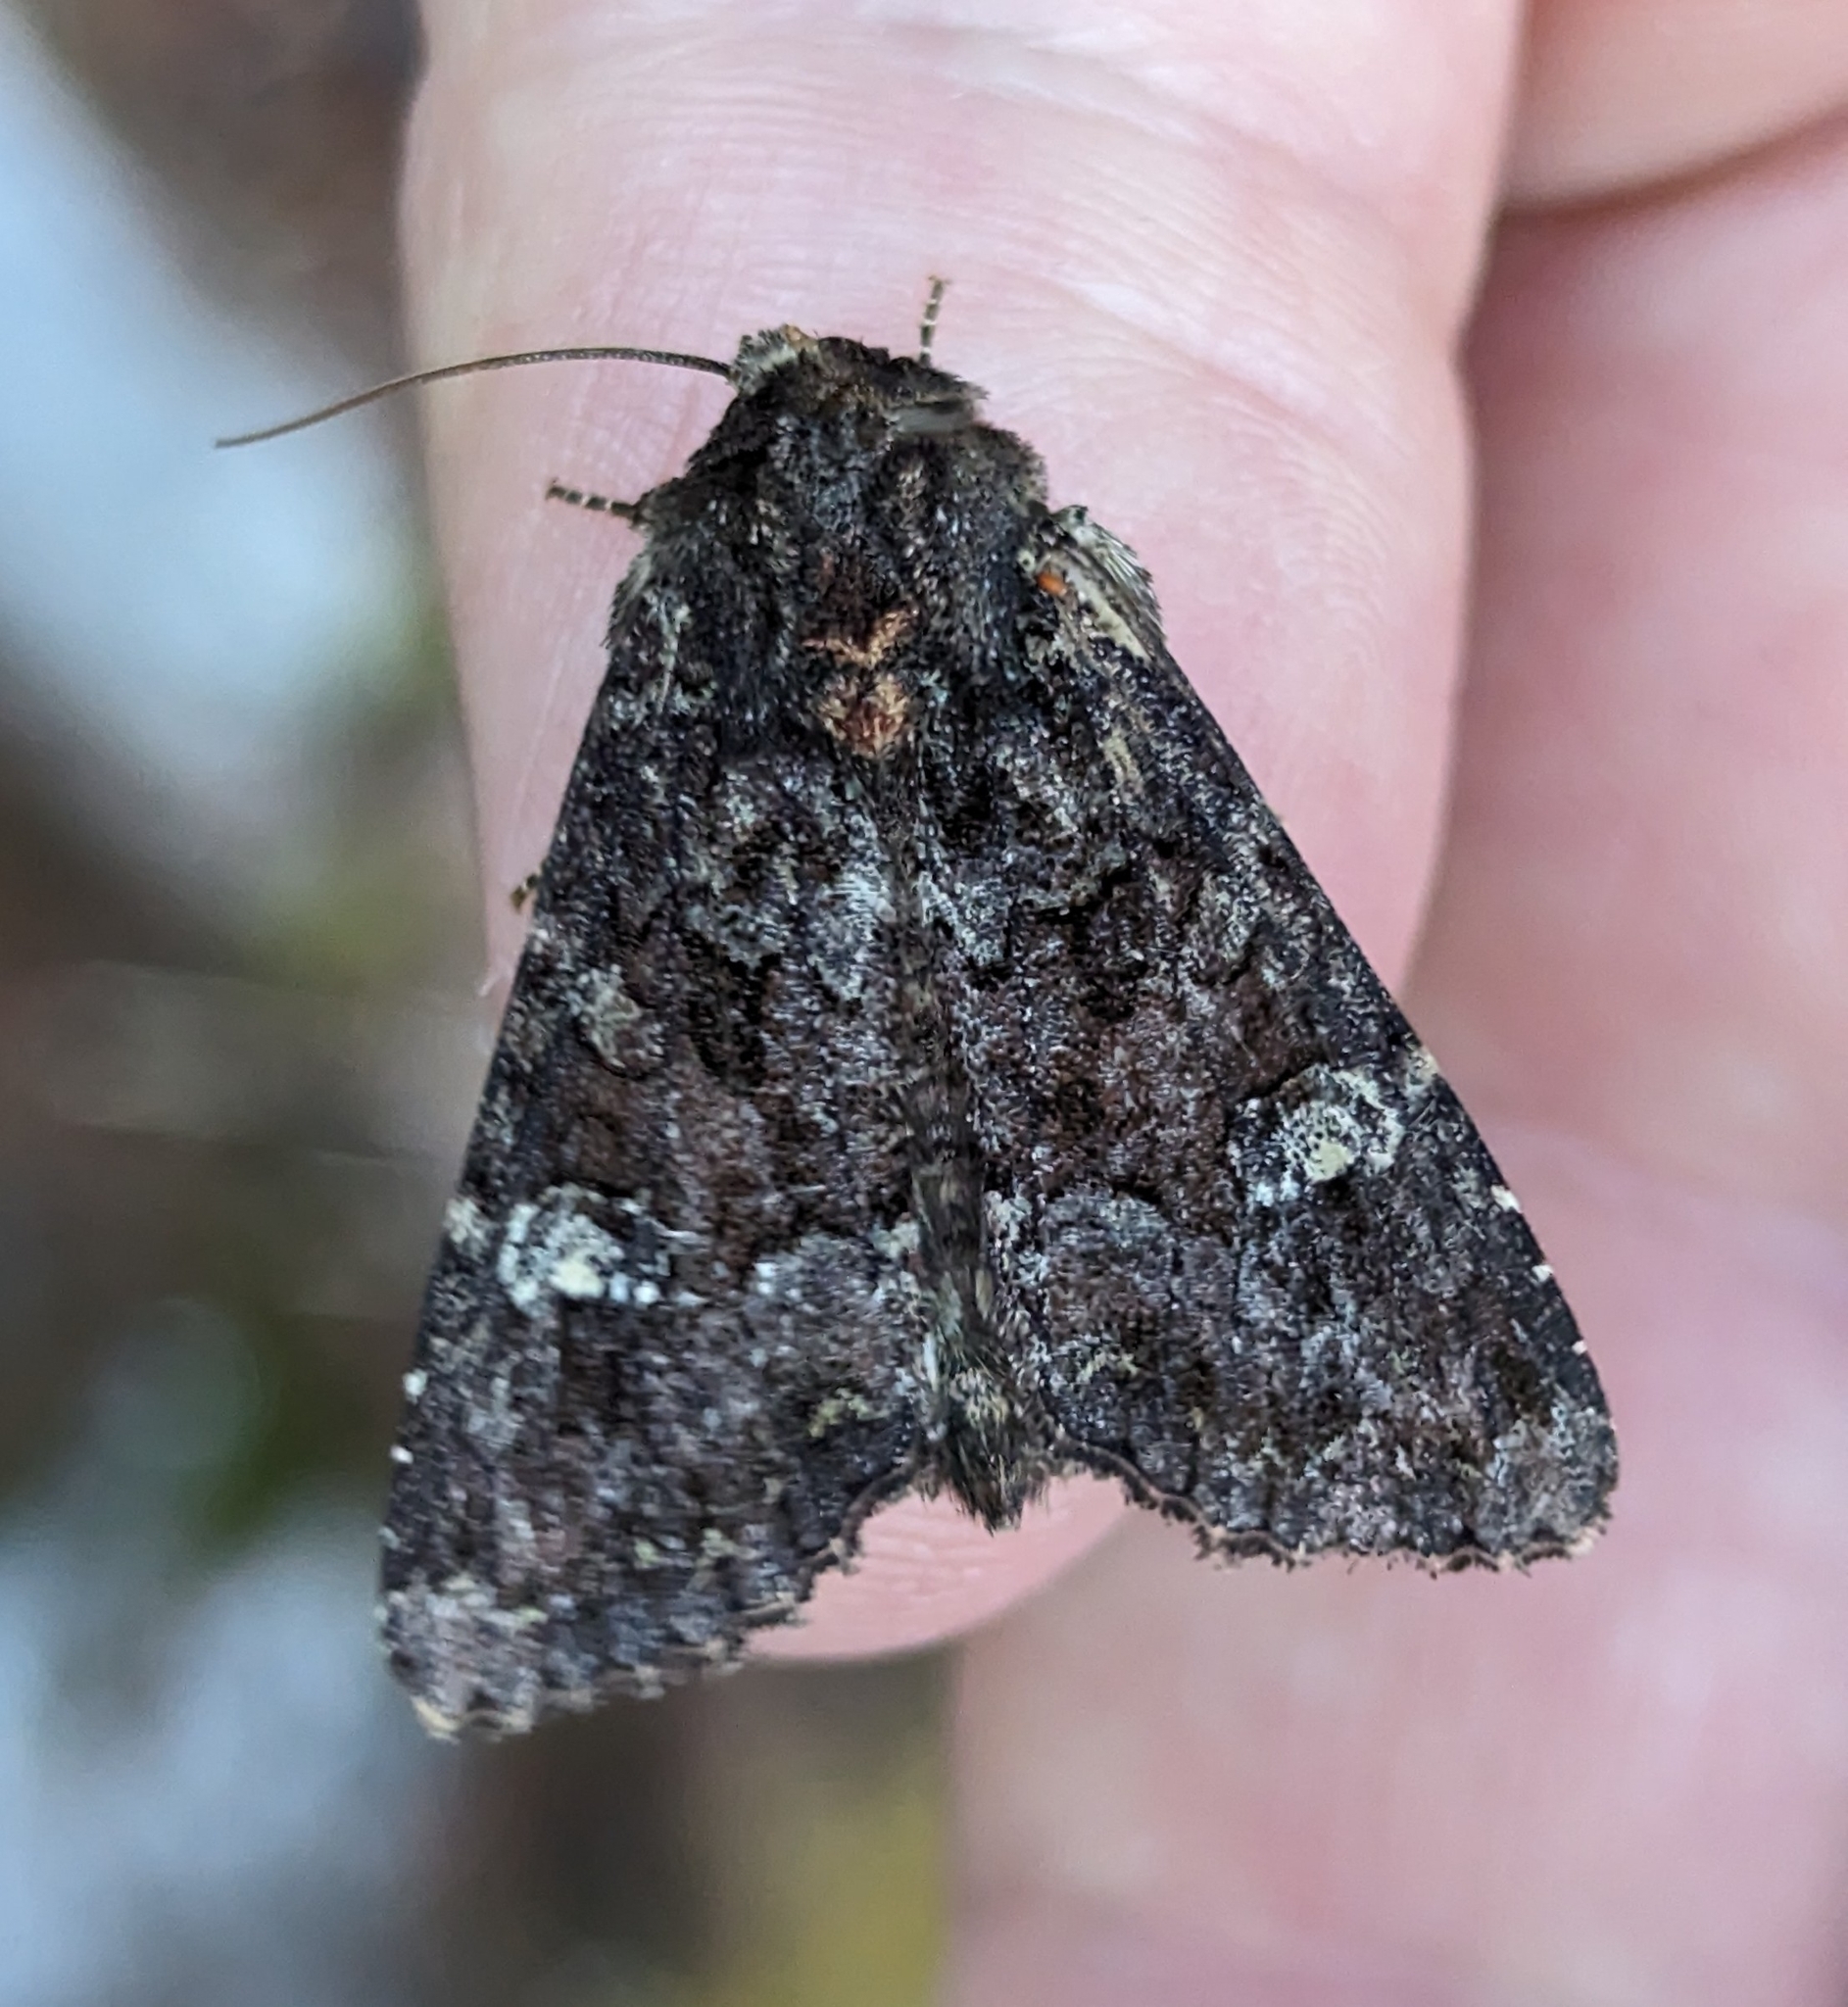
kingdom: Animalia
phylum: Arthropoda
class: Insecta
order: Lepidoptera
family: Noctuidae
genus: Apamea
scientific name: Apamea amputatrix
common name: Yellow-headed cutworm moth
